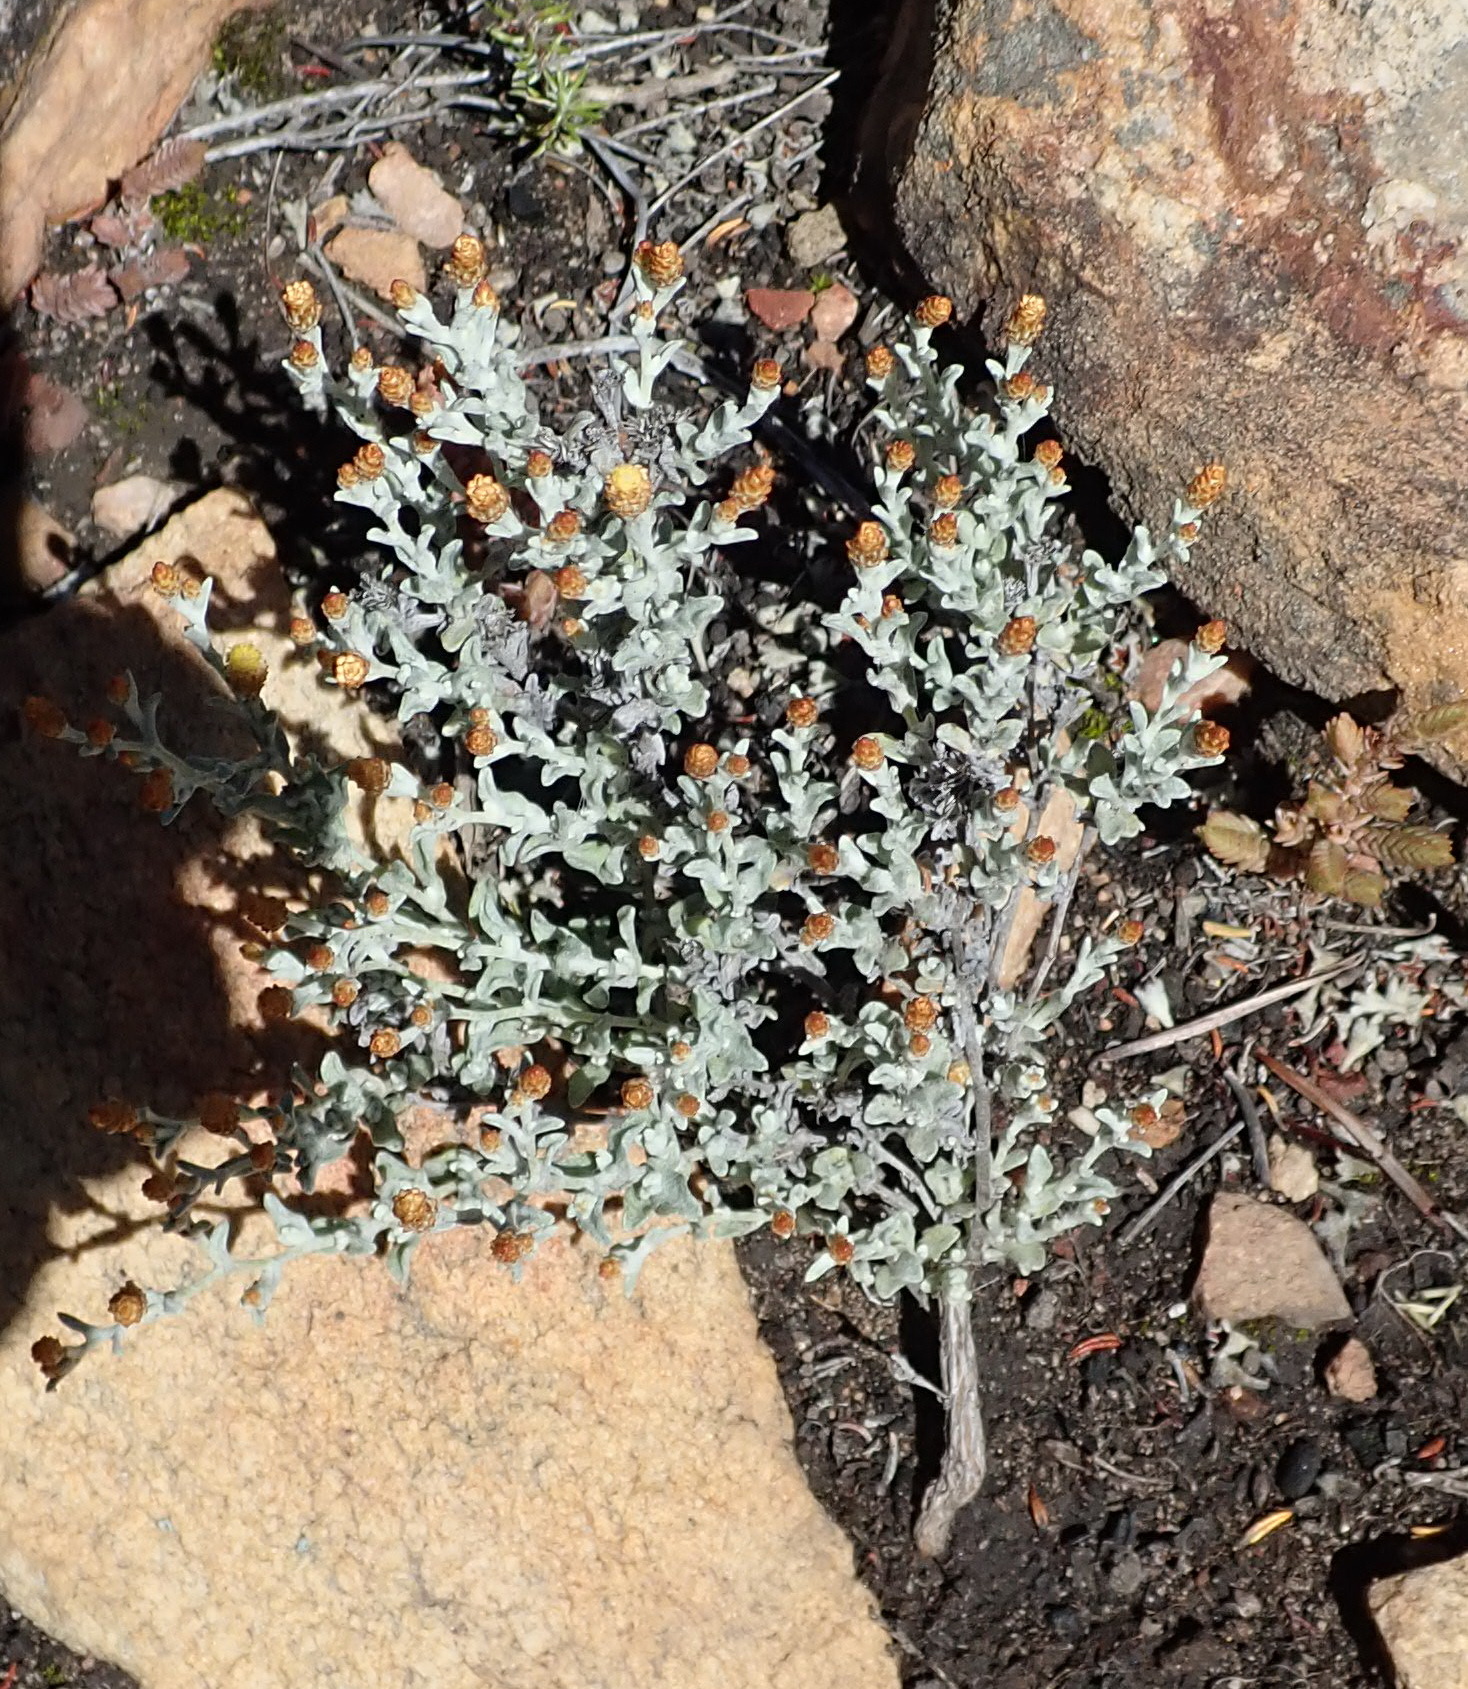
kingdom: Plantae
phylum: Tracheophyta
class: Magnoliopsida
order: Asterales
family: Asteraceae
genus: Helichrysum
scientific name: Helichrysum cylindriflorum
